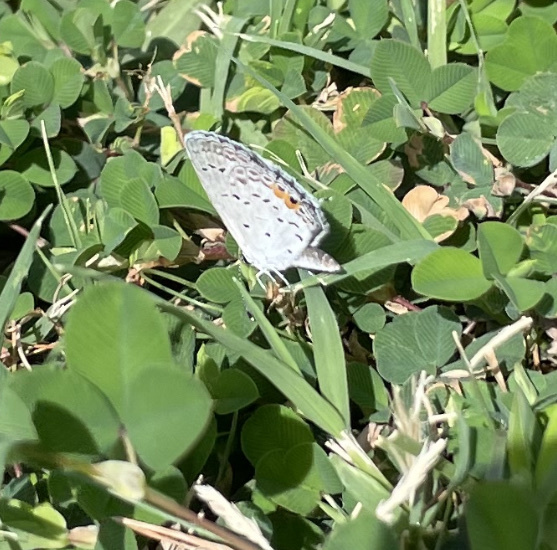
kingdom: Animalia
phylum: Arthropoda
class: Insecta
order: Lepidoptera
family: Lycaenidae
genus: Elkalyce
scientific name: Elkalyce comyntas
